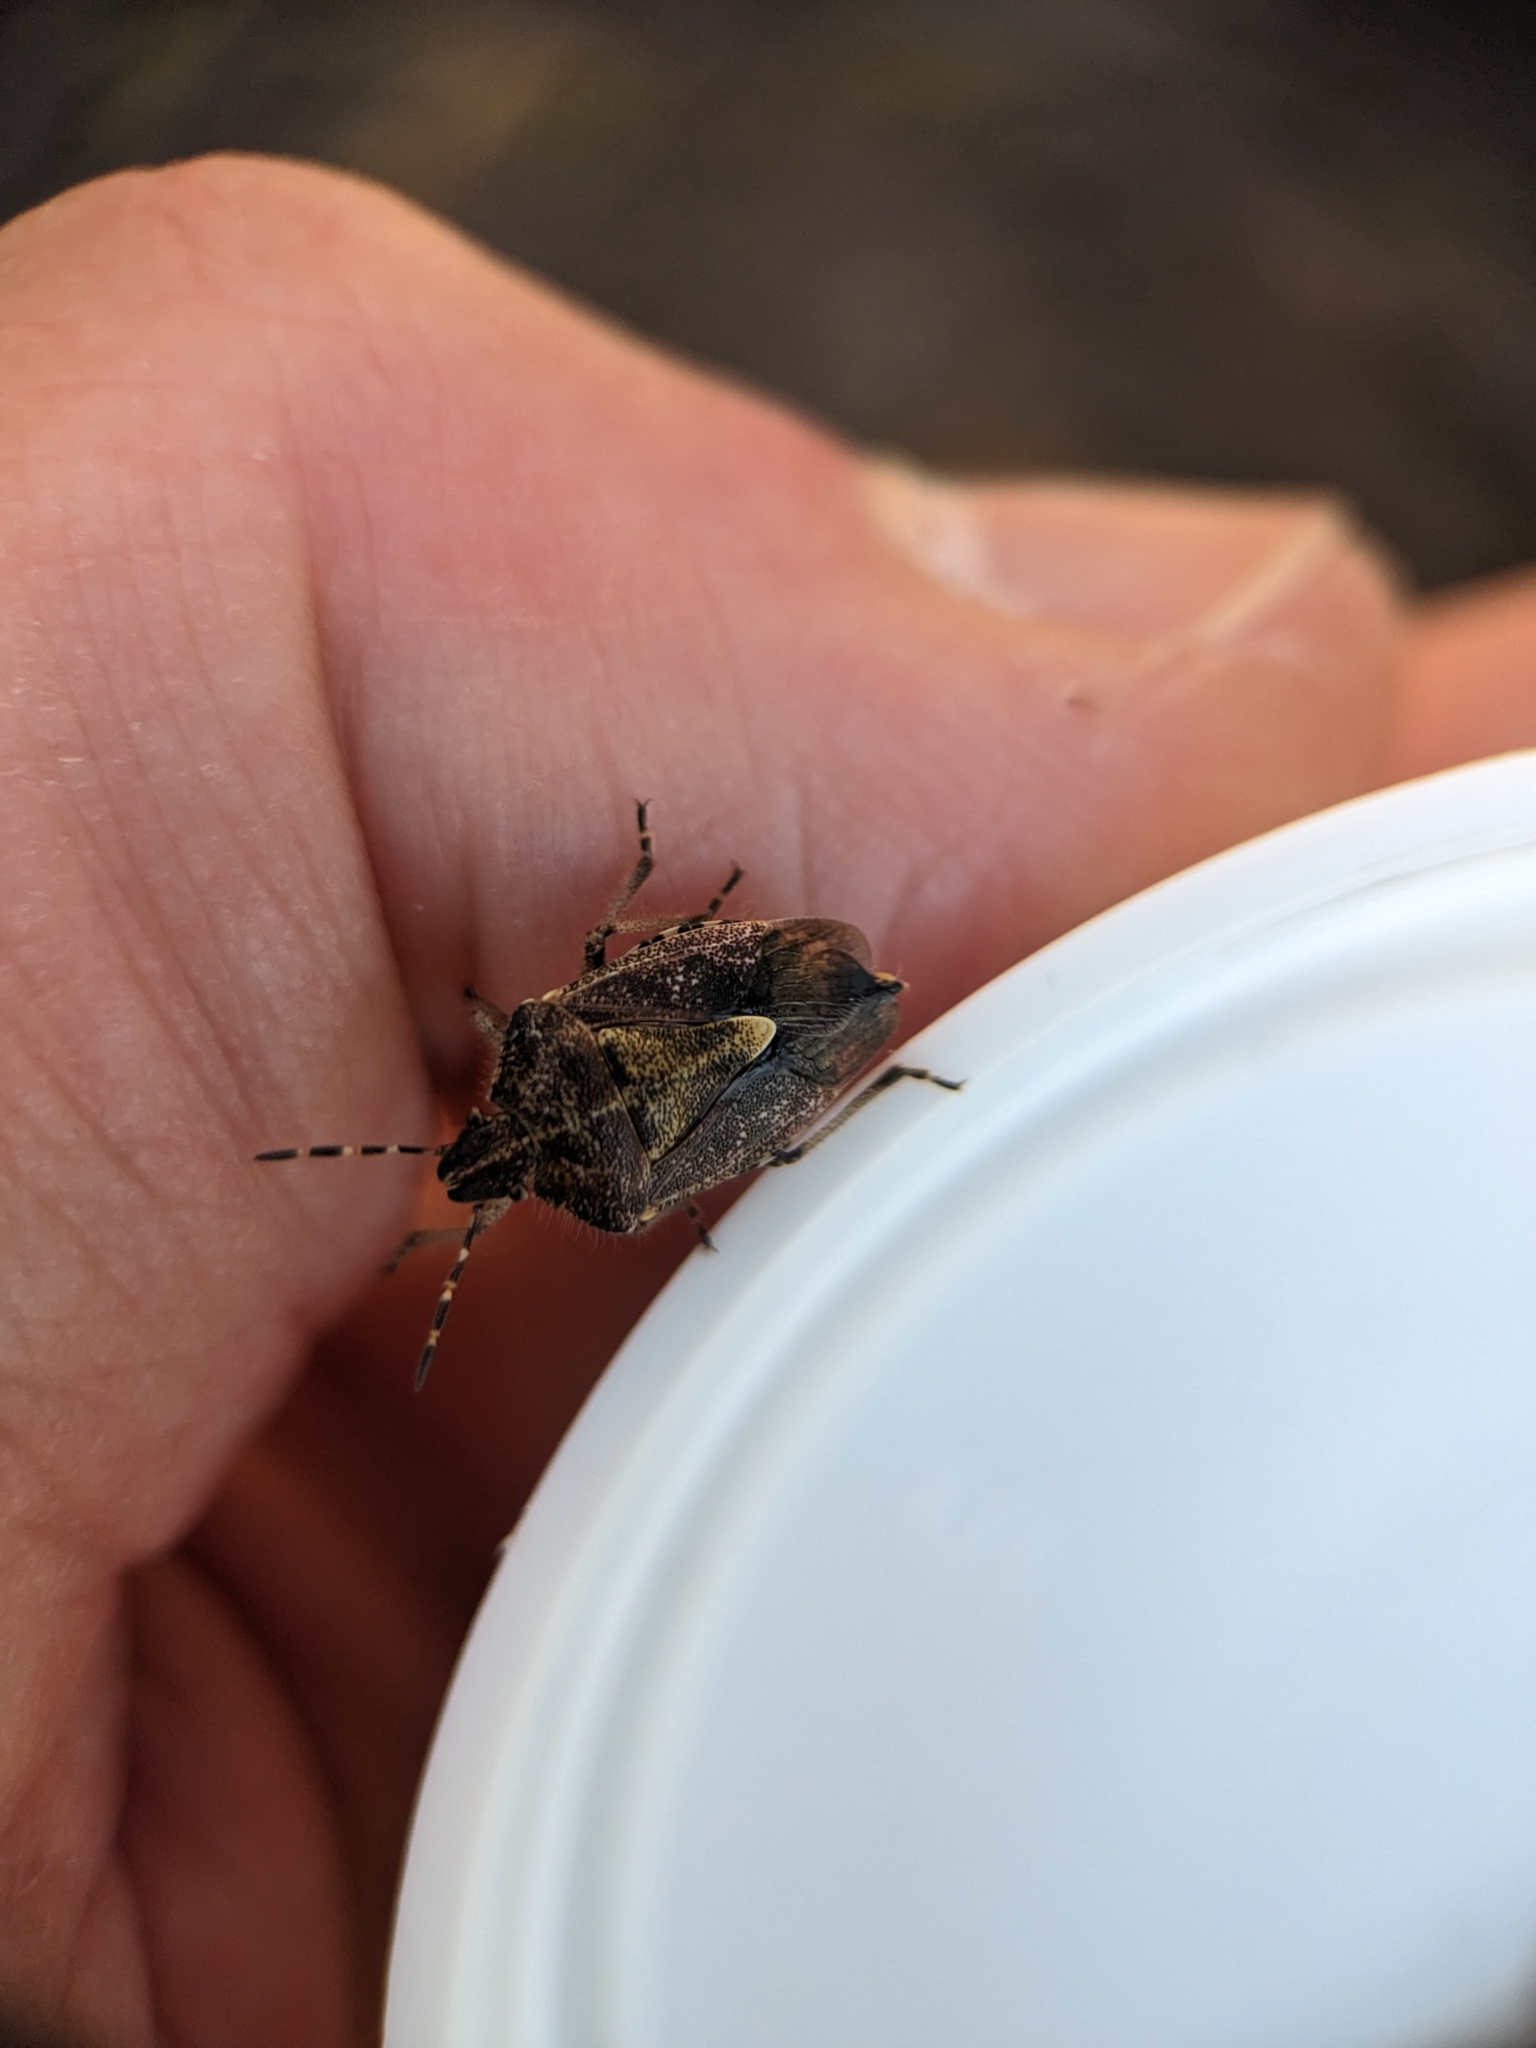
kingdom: Animalia
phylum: Arthropoda
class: Insecta
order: Hemiptera
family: Pentatomidae
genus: Dolycoris
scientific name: Dolycoris baccarum
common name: Sloe bug
